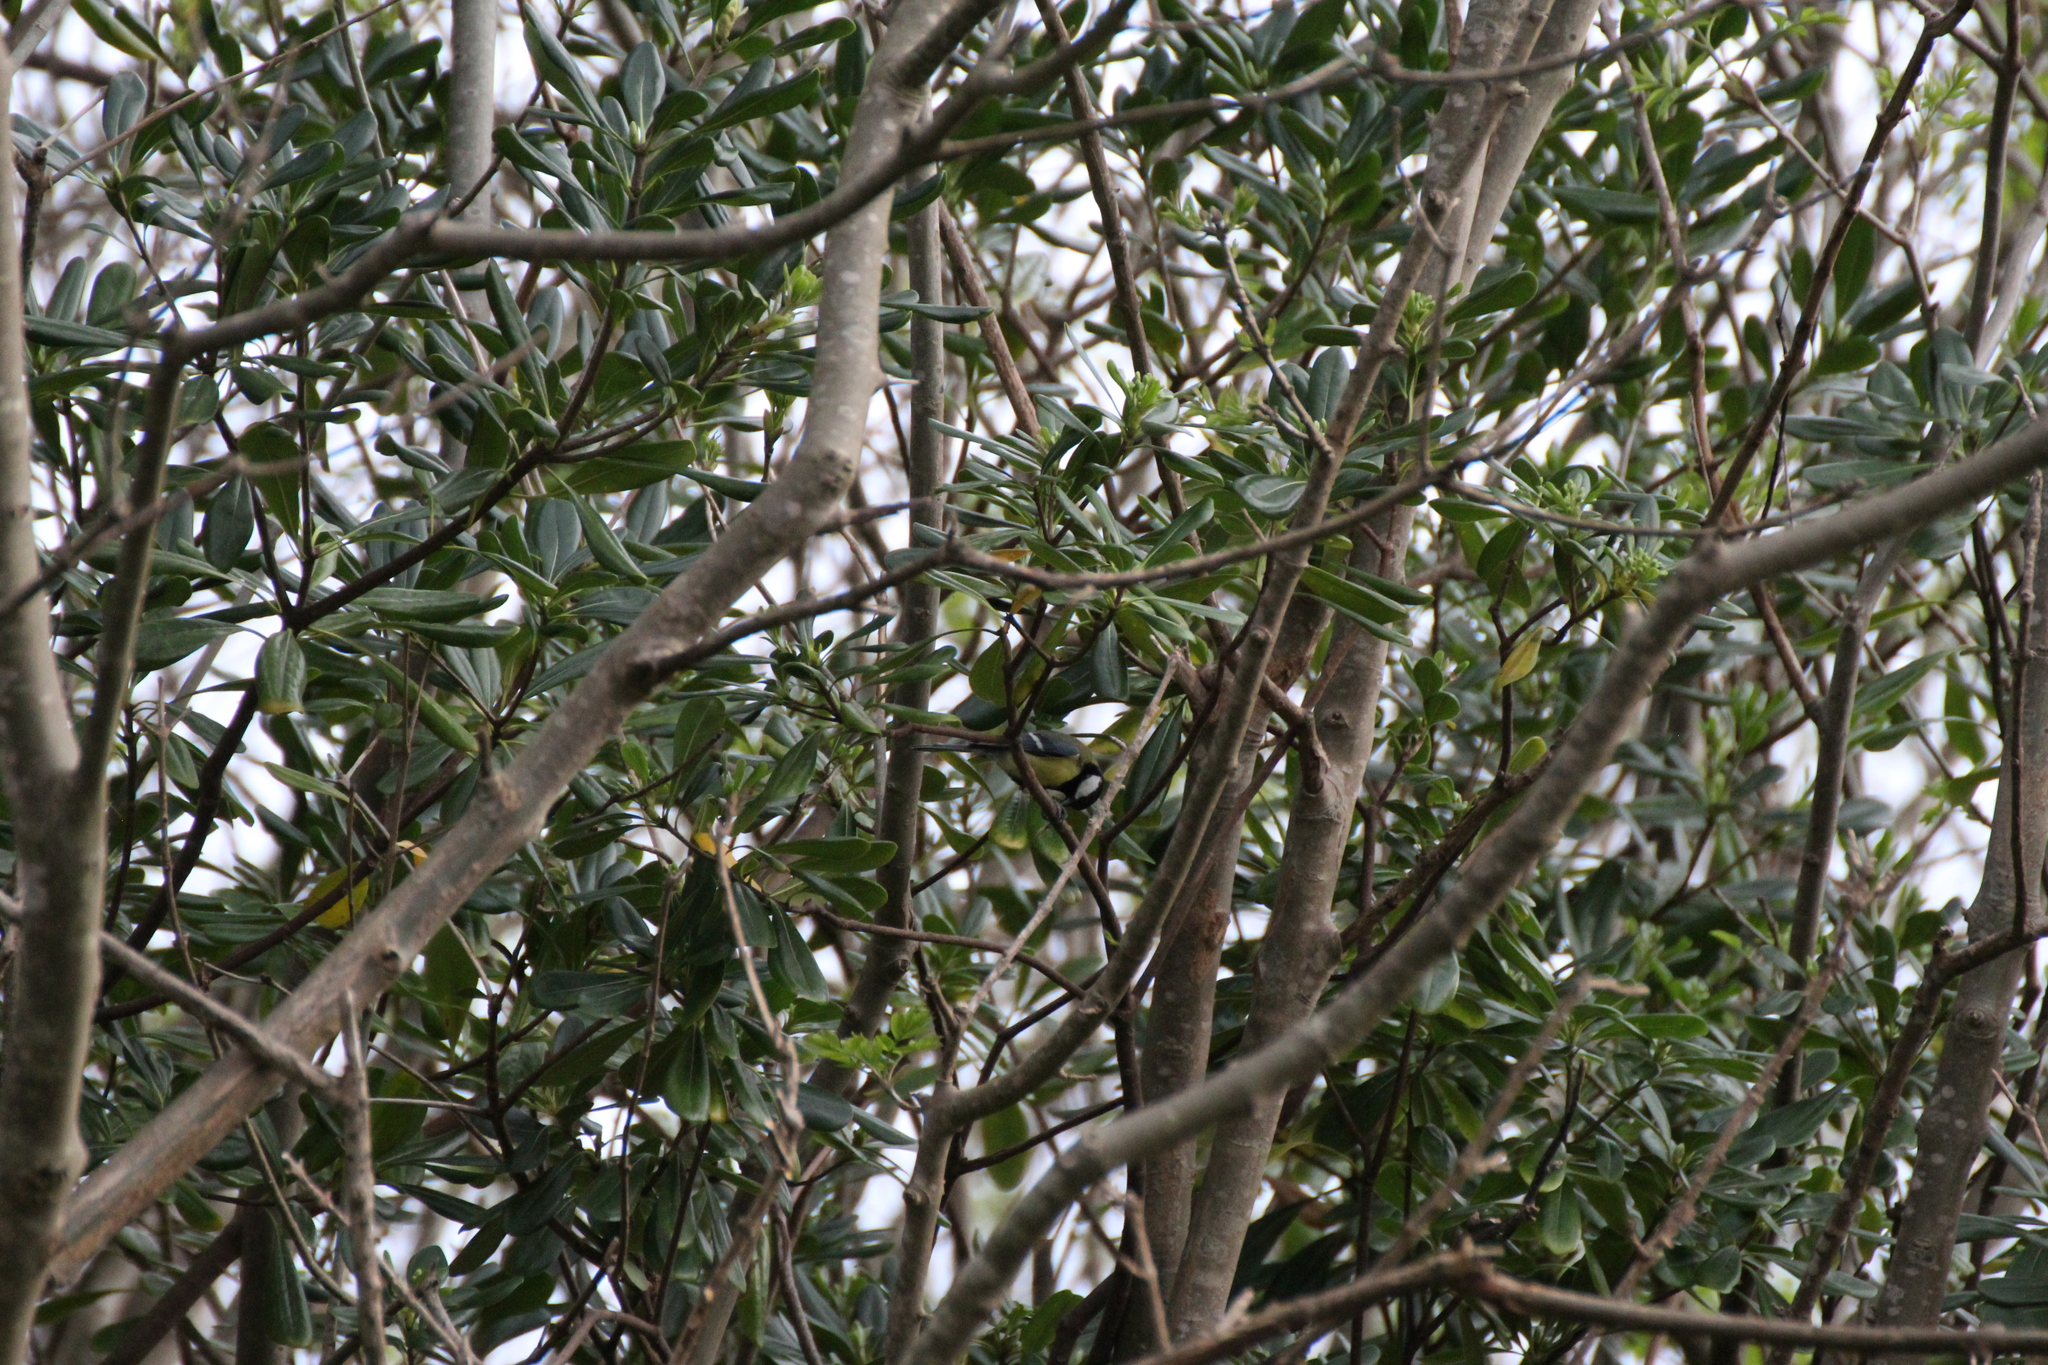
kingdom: Animalia
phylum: Chordata
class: Aves
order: Passeriformes
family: Paridae
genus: Parus
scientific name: Parus major
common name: Great tit
